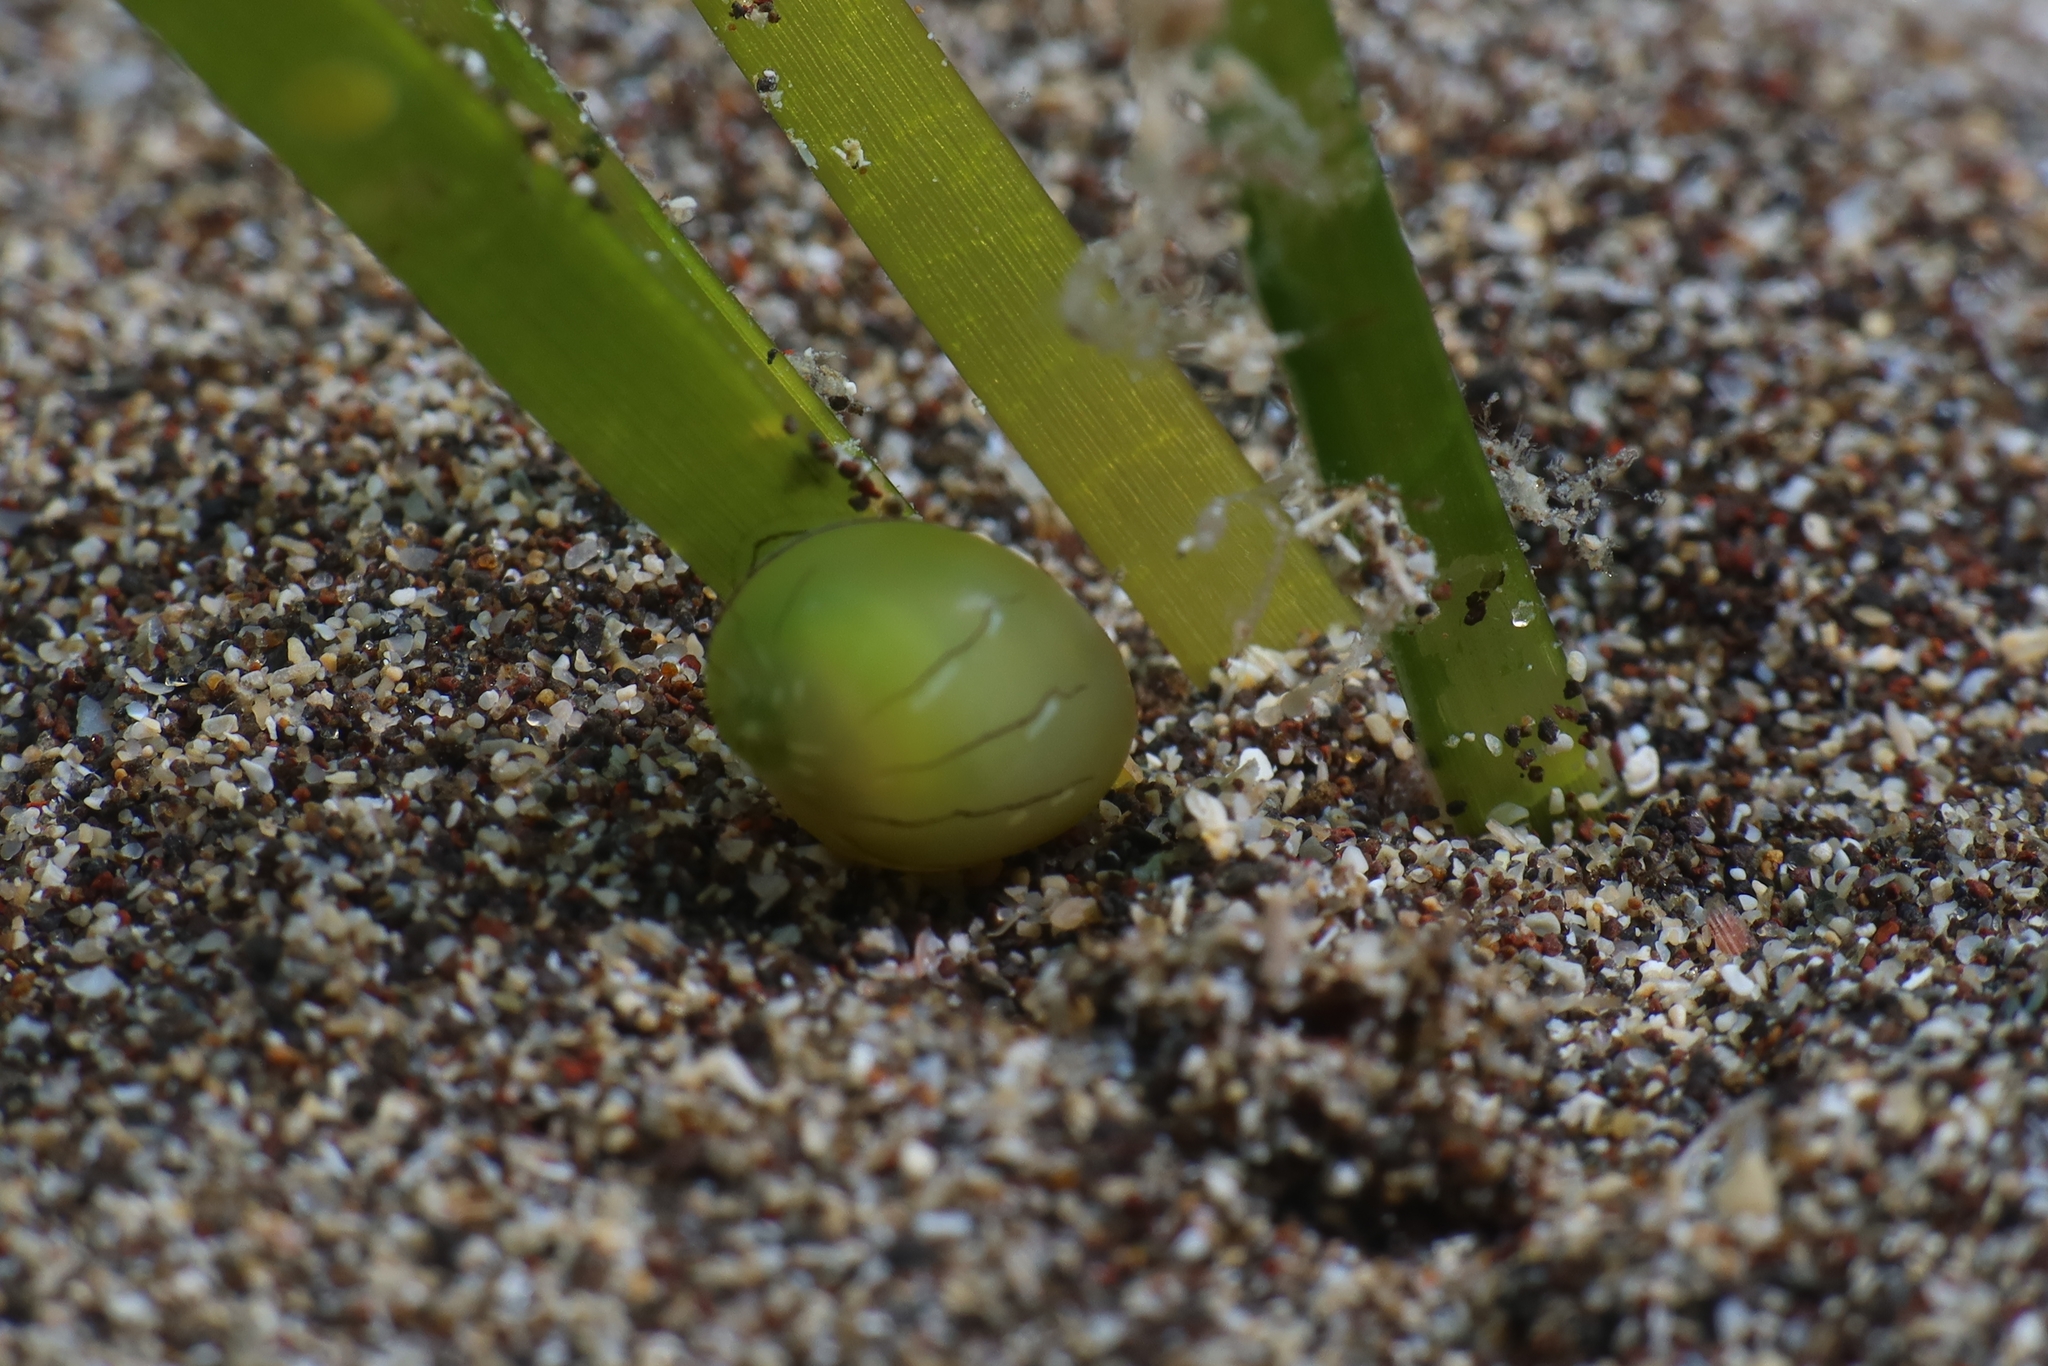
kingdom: Animalia
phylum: Mollusca
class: Gastropoda
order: Cycloneritida
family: Neritidae
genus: Smaragdia
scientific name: Smaragdia viridis
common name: Emerald nerite
